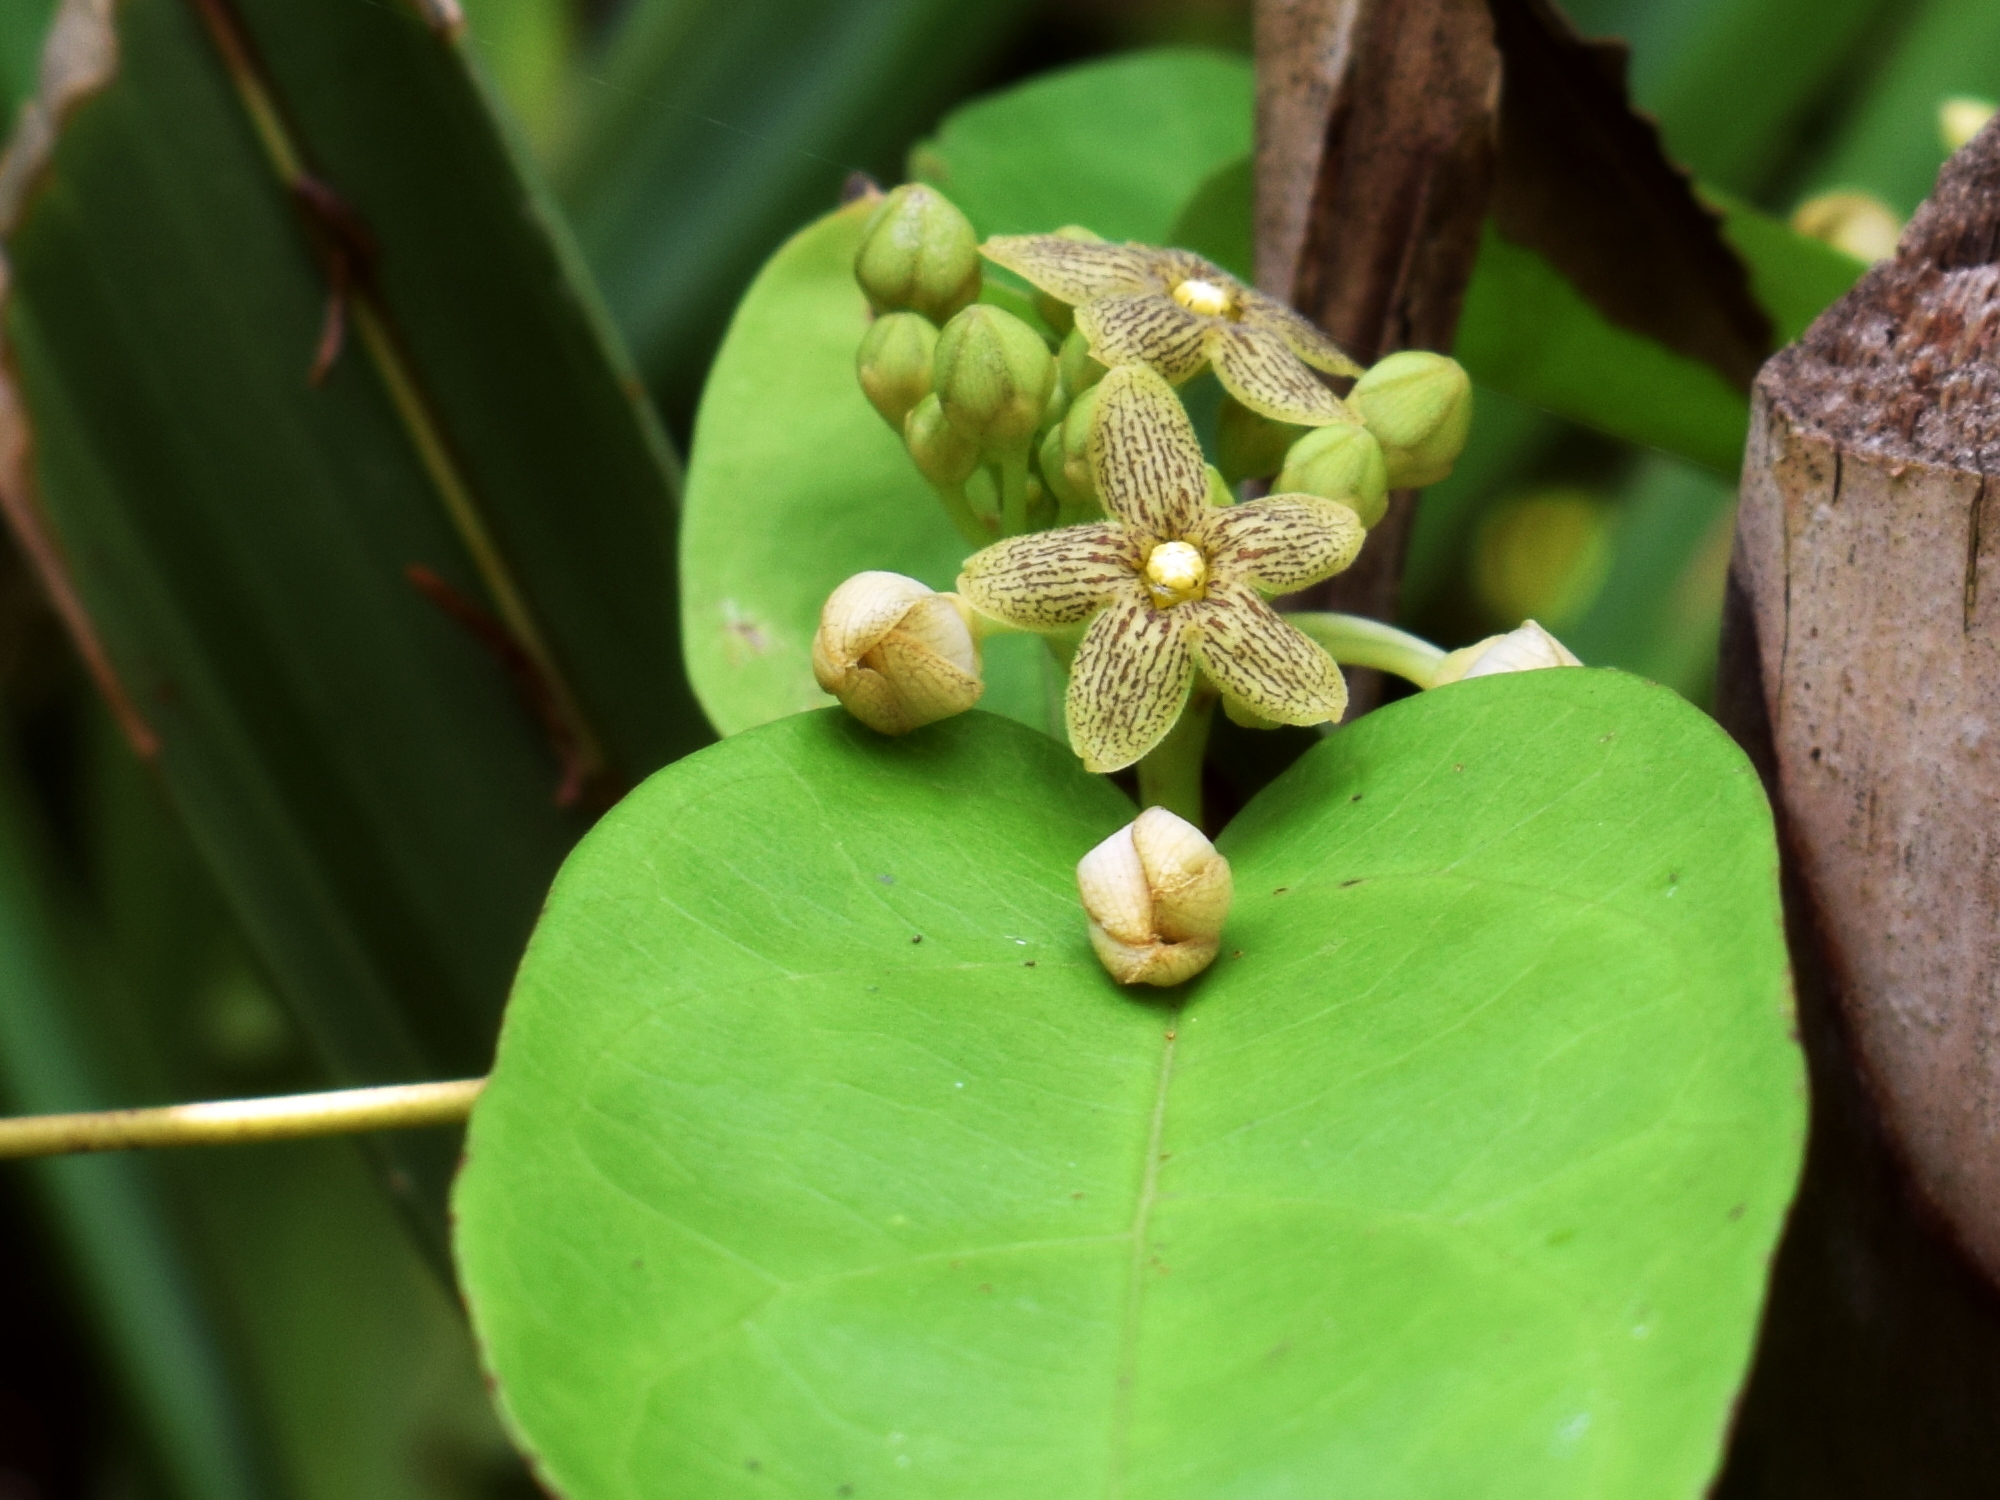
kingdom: Plantae
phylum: Tracheophyta
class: Magnoliopsida
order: Gentianales
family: Apocynaceae
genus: Sarcolobus
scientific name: Sarcolobus globosus
